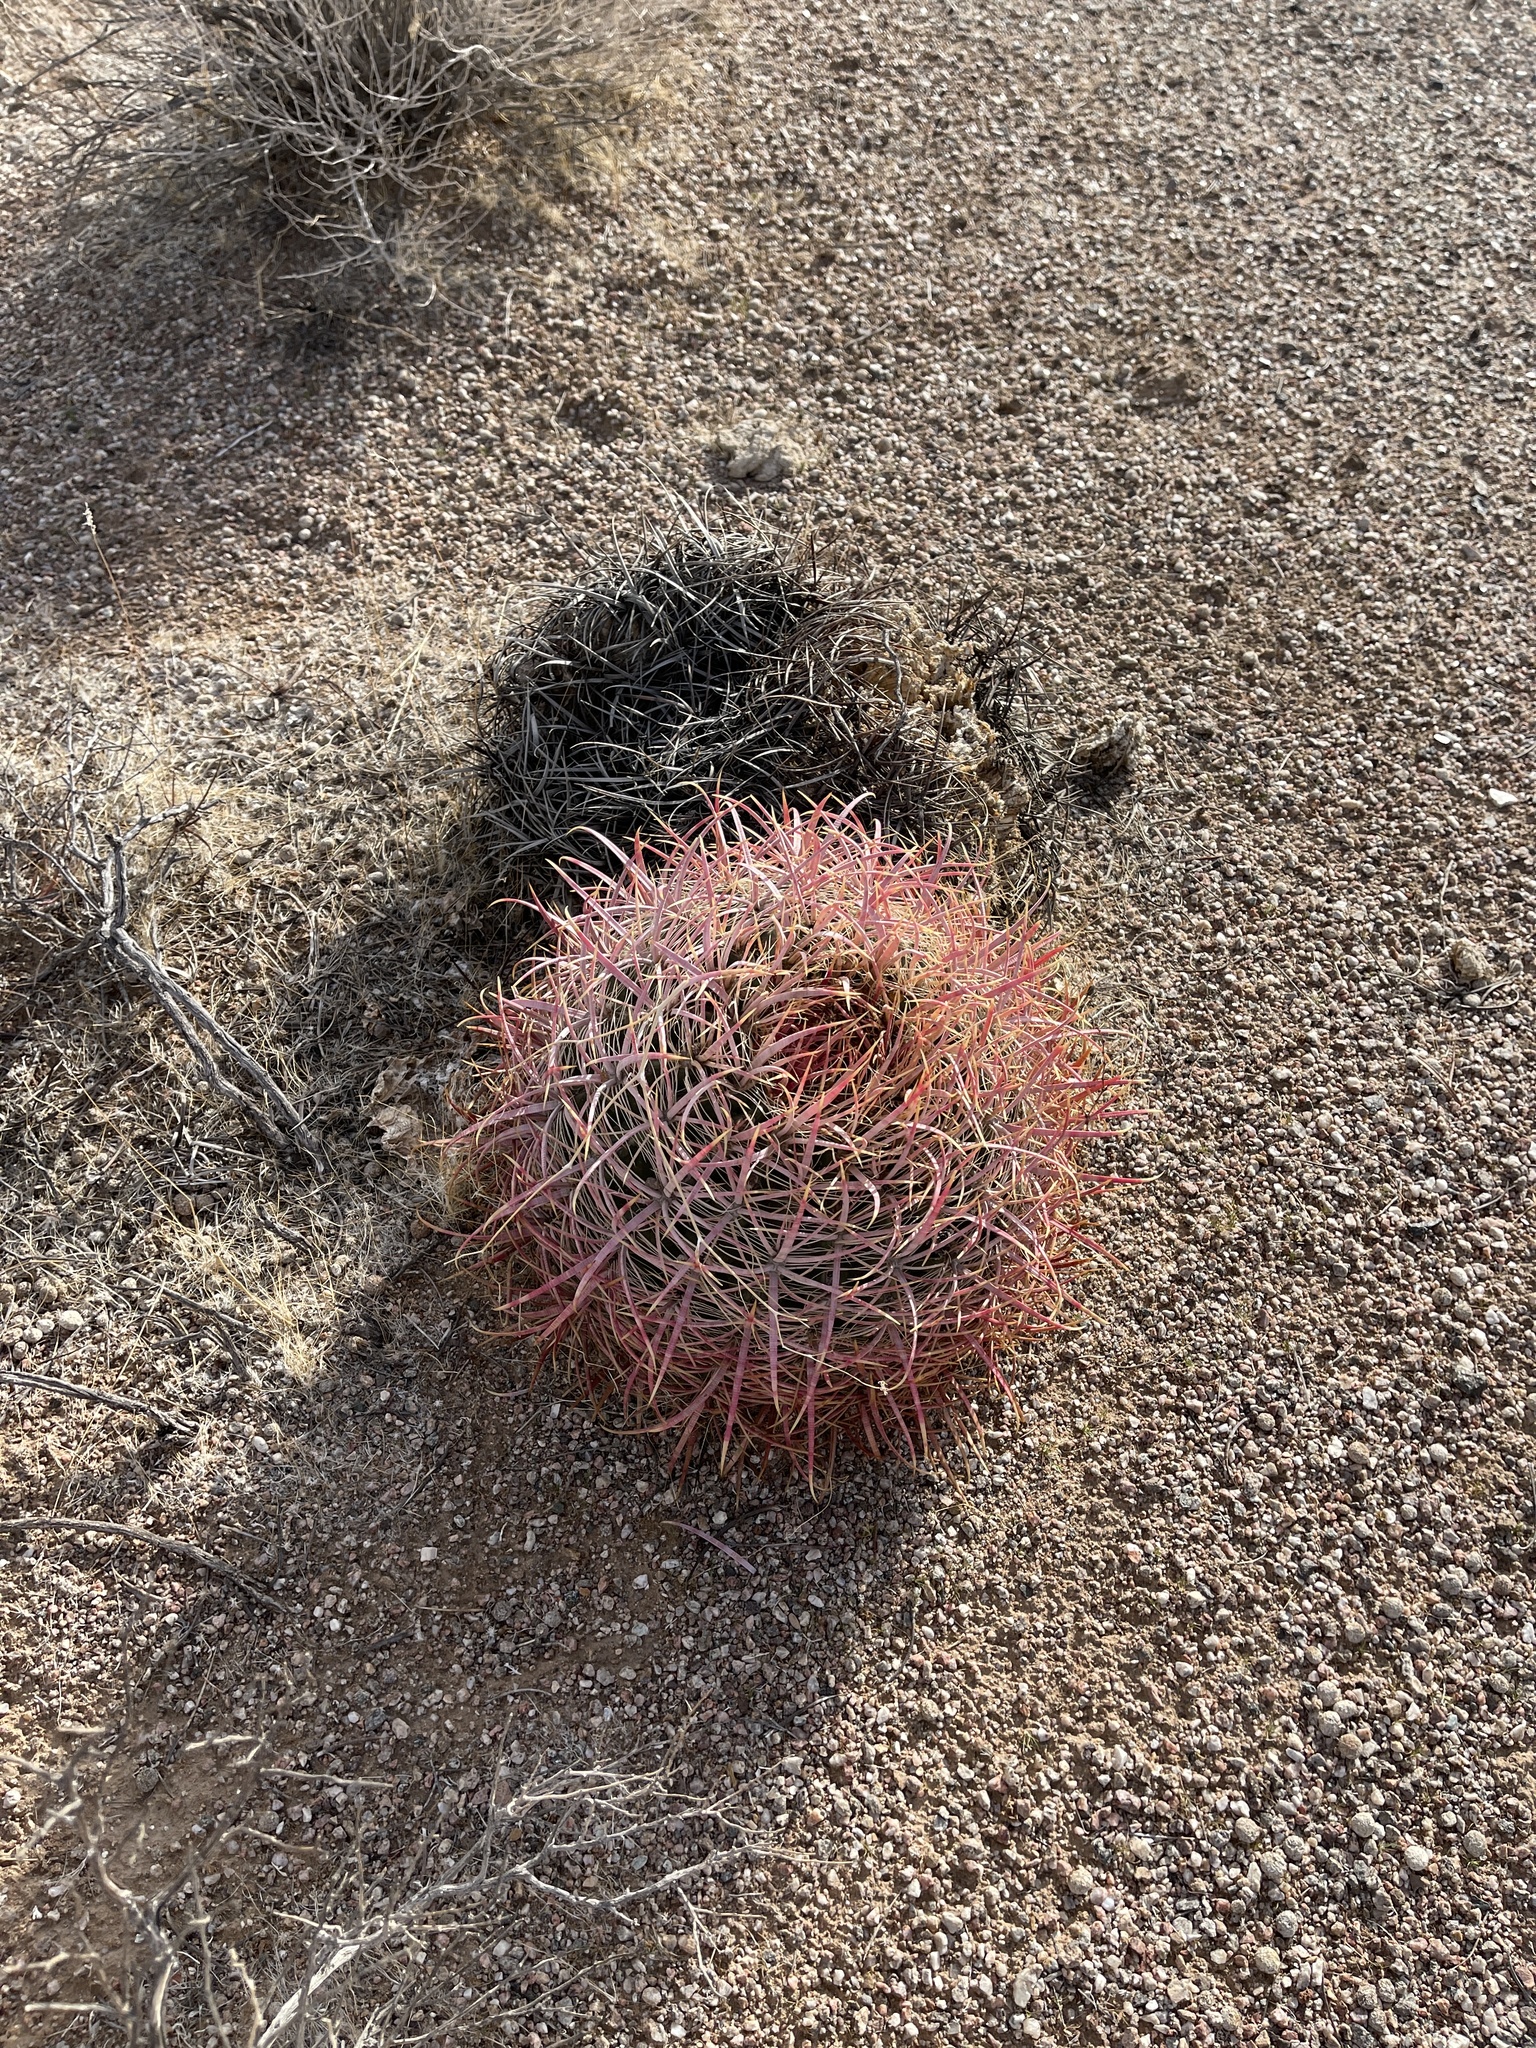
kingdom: Plantae
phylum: Tracheophyta
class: Magnoliopsida
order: Caryophyllales
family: Cactaceae
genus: Ferocactus
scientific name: Ferocactus cylindraceus
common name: California barrel cactus
